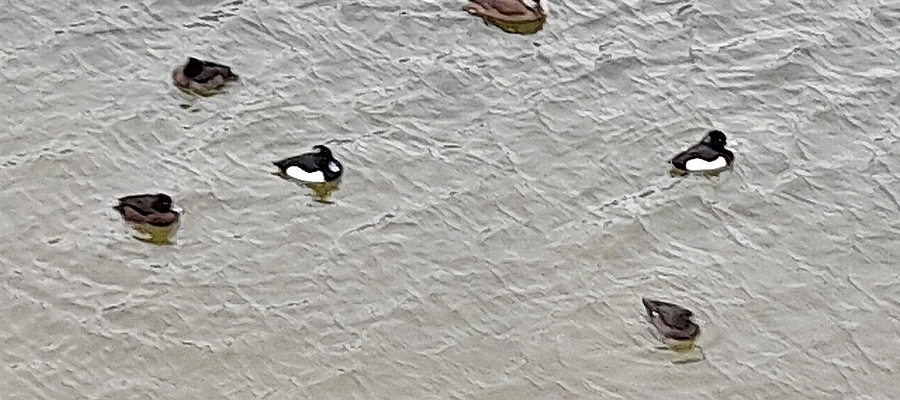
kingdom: Animalia
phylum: Chordata
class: Aves
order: Anseriformes
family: Anatidae
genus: Aythya
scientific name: Aythya fuligula
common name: Tufted duck
